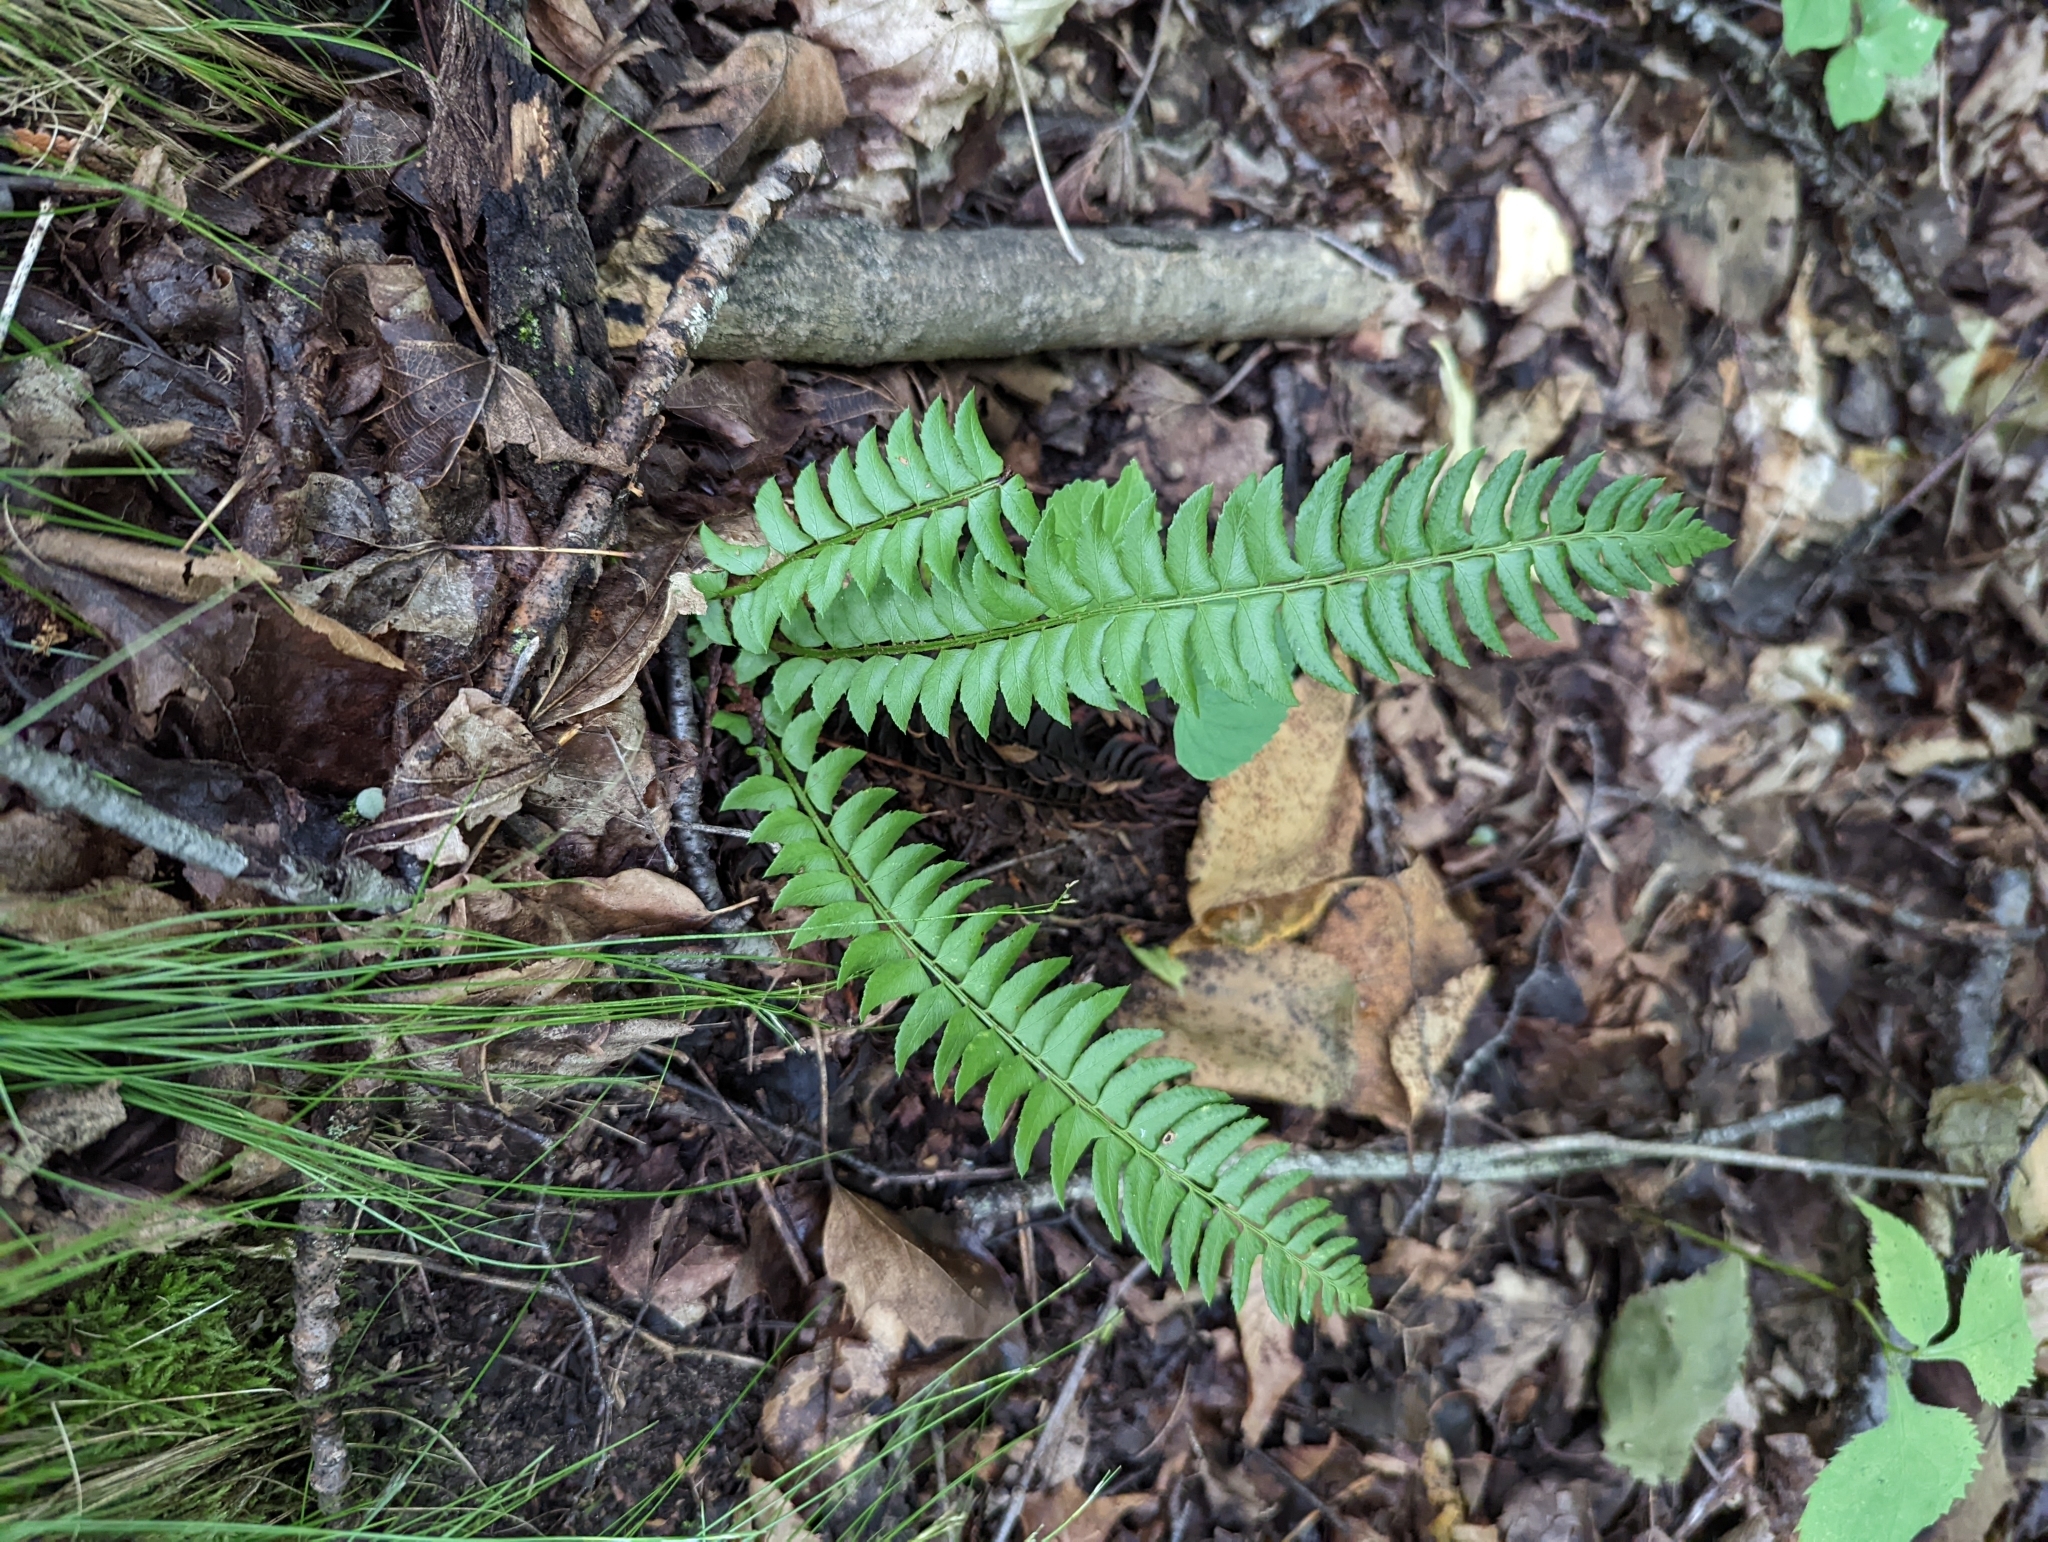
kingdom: Plantae
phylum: Tracheophyta
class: Polypodiopsida
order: Polypodiales
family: Dryopteridaceae
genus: Polystichum
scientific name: Polystichum lonchitis
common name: Holly fern
